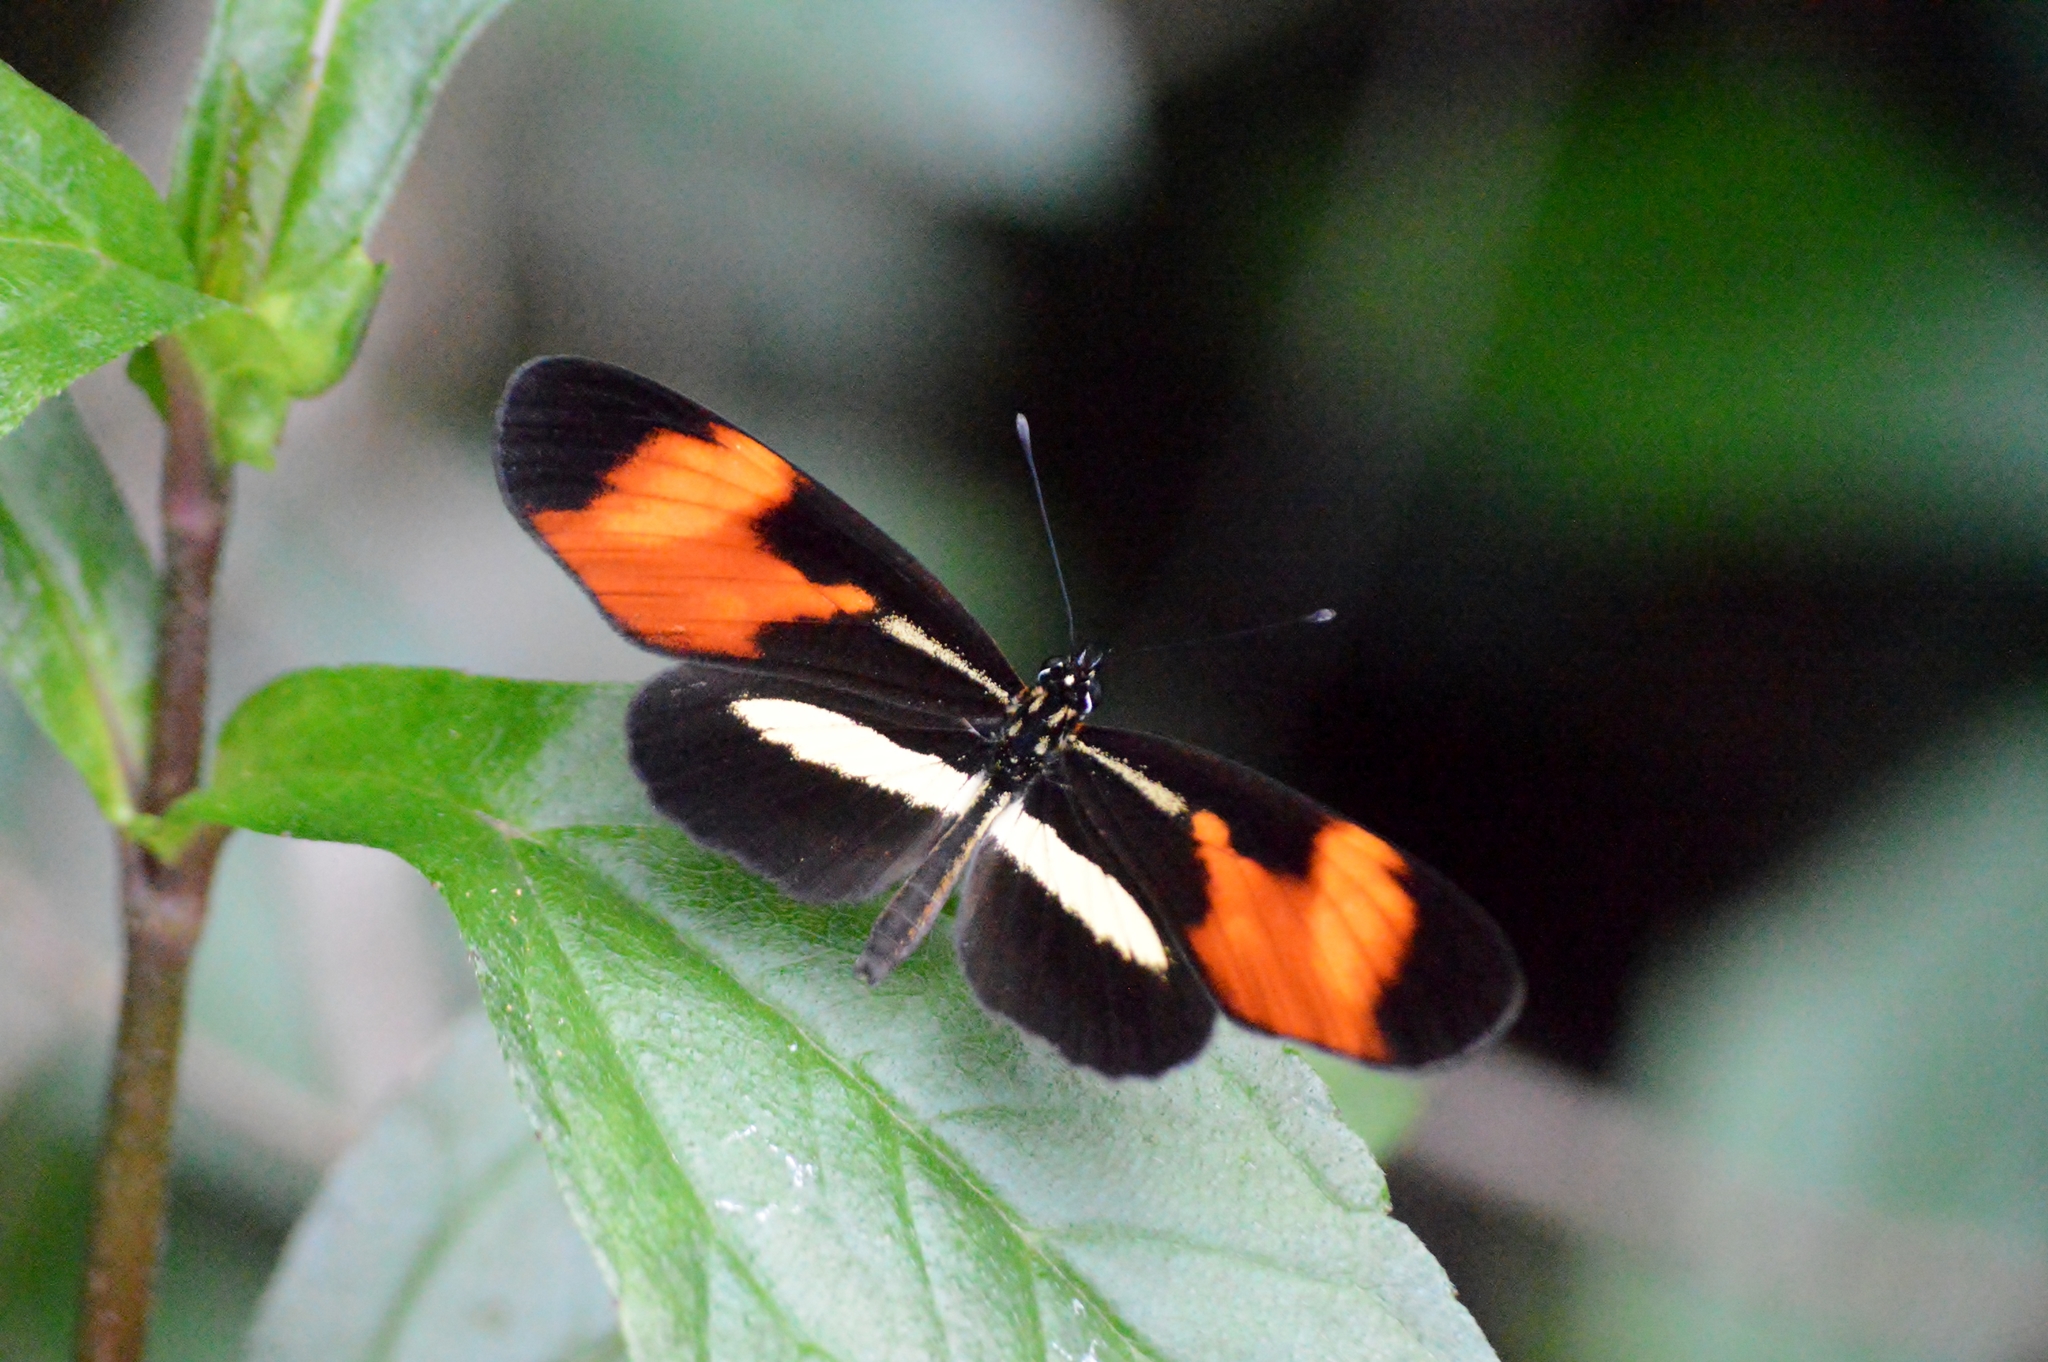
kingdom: Animalia
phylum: Arthropoda
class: Insecta
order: Lepidoptera
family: Nymphalidae
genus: Eresia
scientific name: Eresia lansdorfi
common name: Lansdorf's crescent
